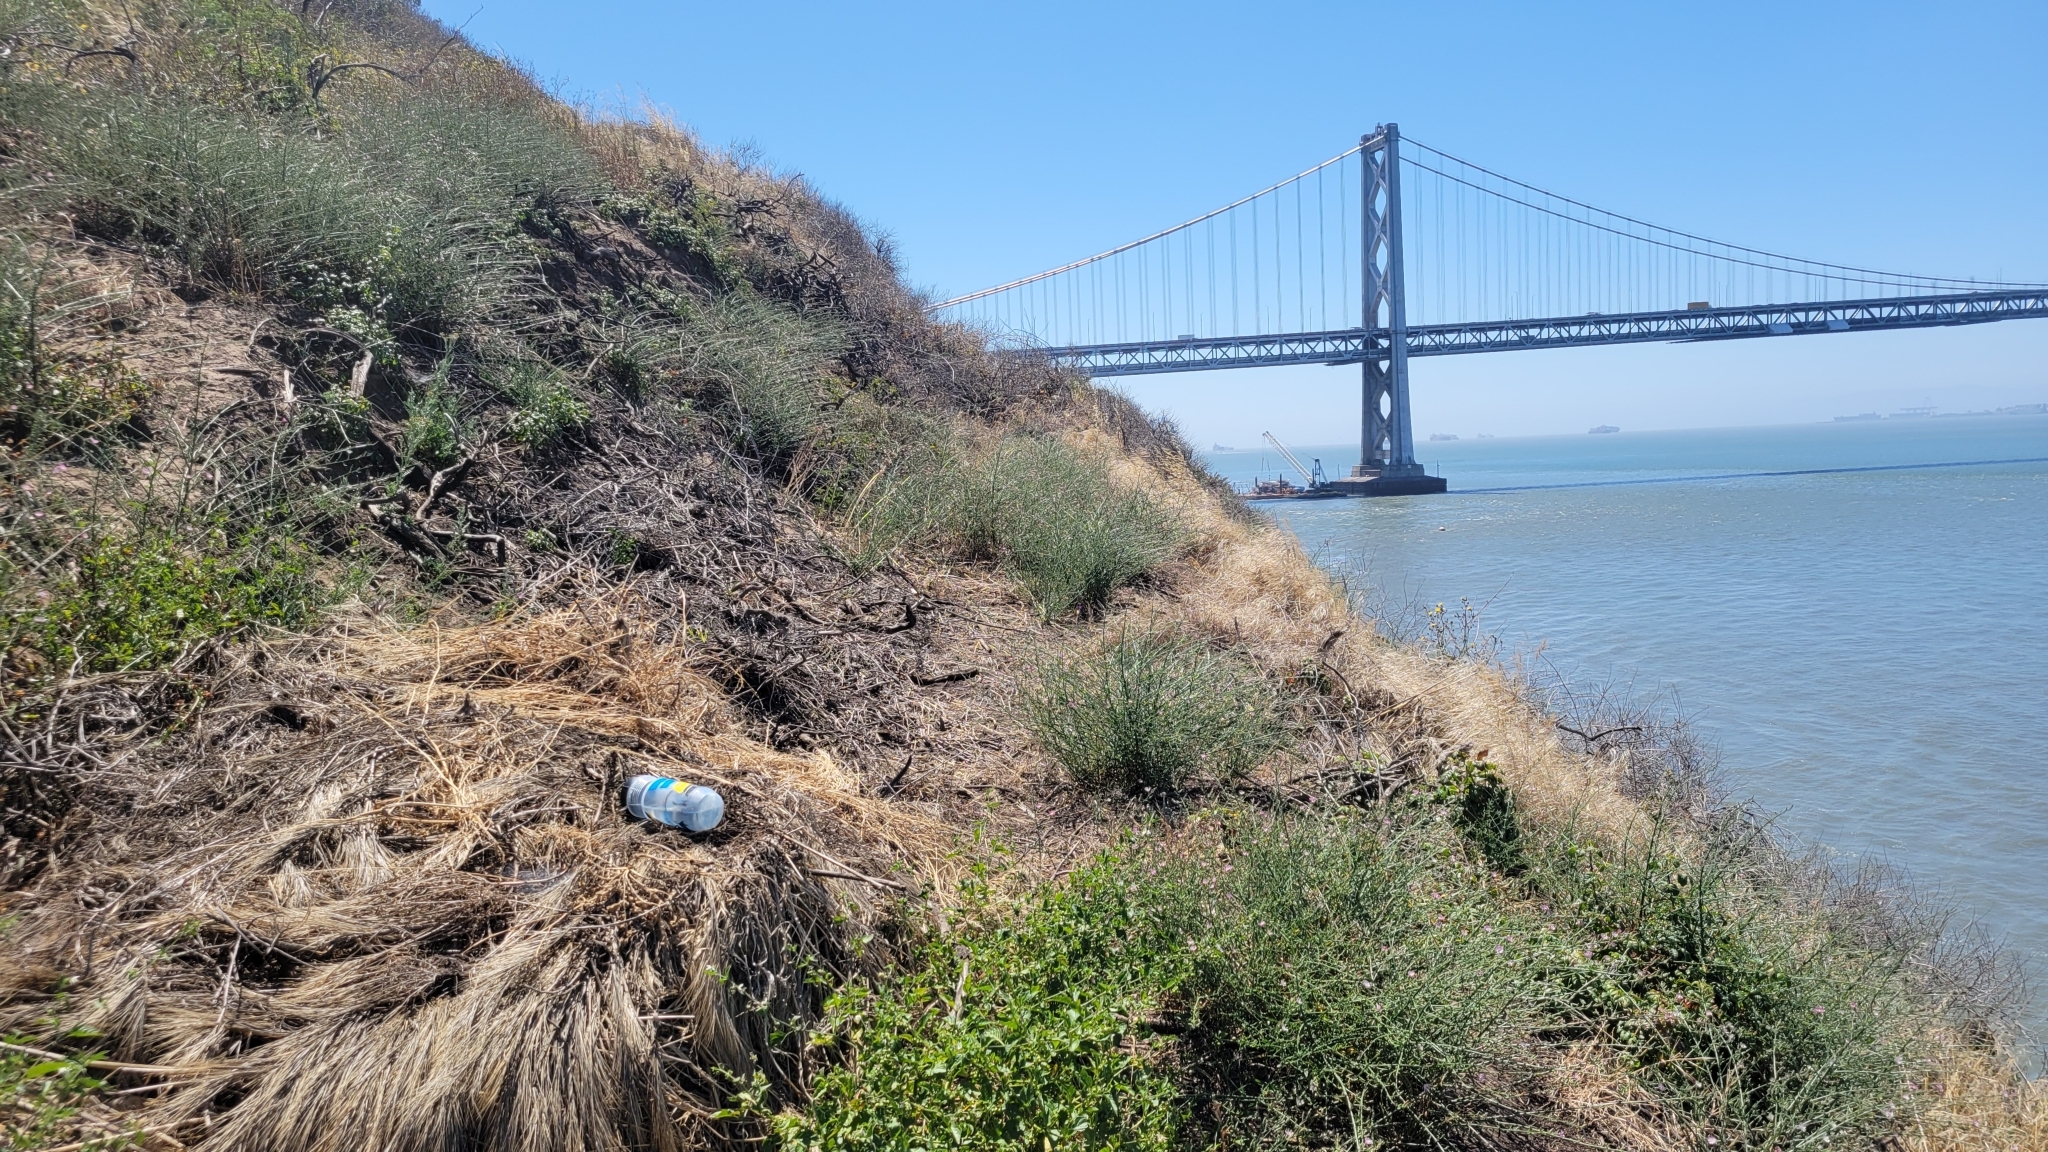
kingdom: Plantae
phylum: Tracheophyta
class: Magnoliopsida
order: Asterales
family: Asteraceae
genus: Stephanomeria
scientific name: Stephanomeria virgata
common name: Virgate wirelettuce
